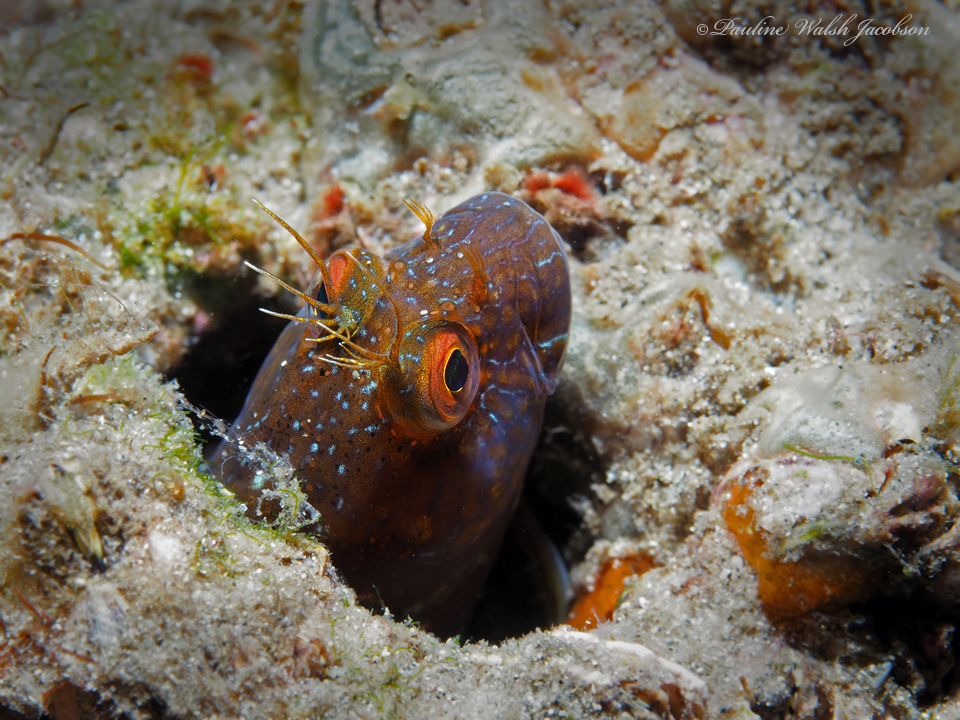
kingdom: Animalia
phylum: Chordata
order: Perciformes
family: Blenniidae
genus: Parablennius
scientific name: Parablennius marmoreus
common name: Seaweed blenny
